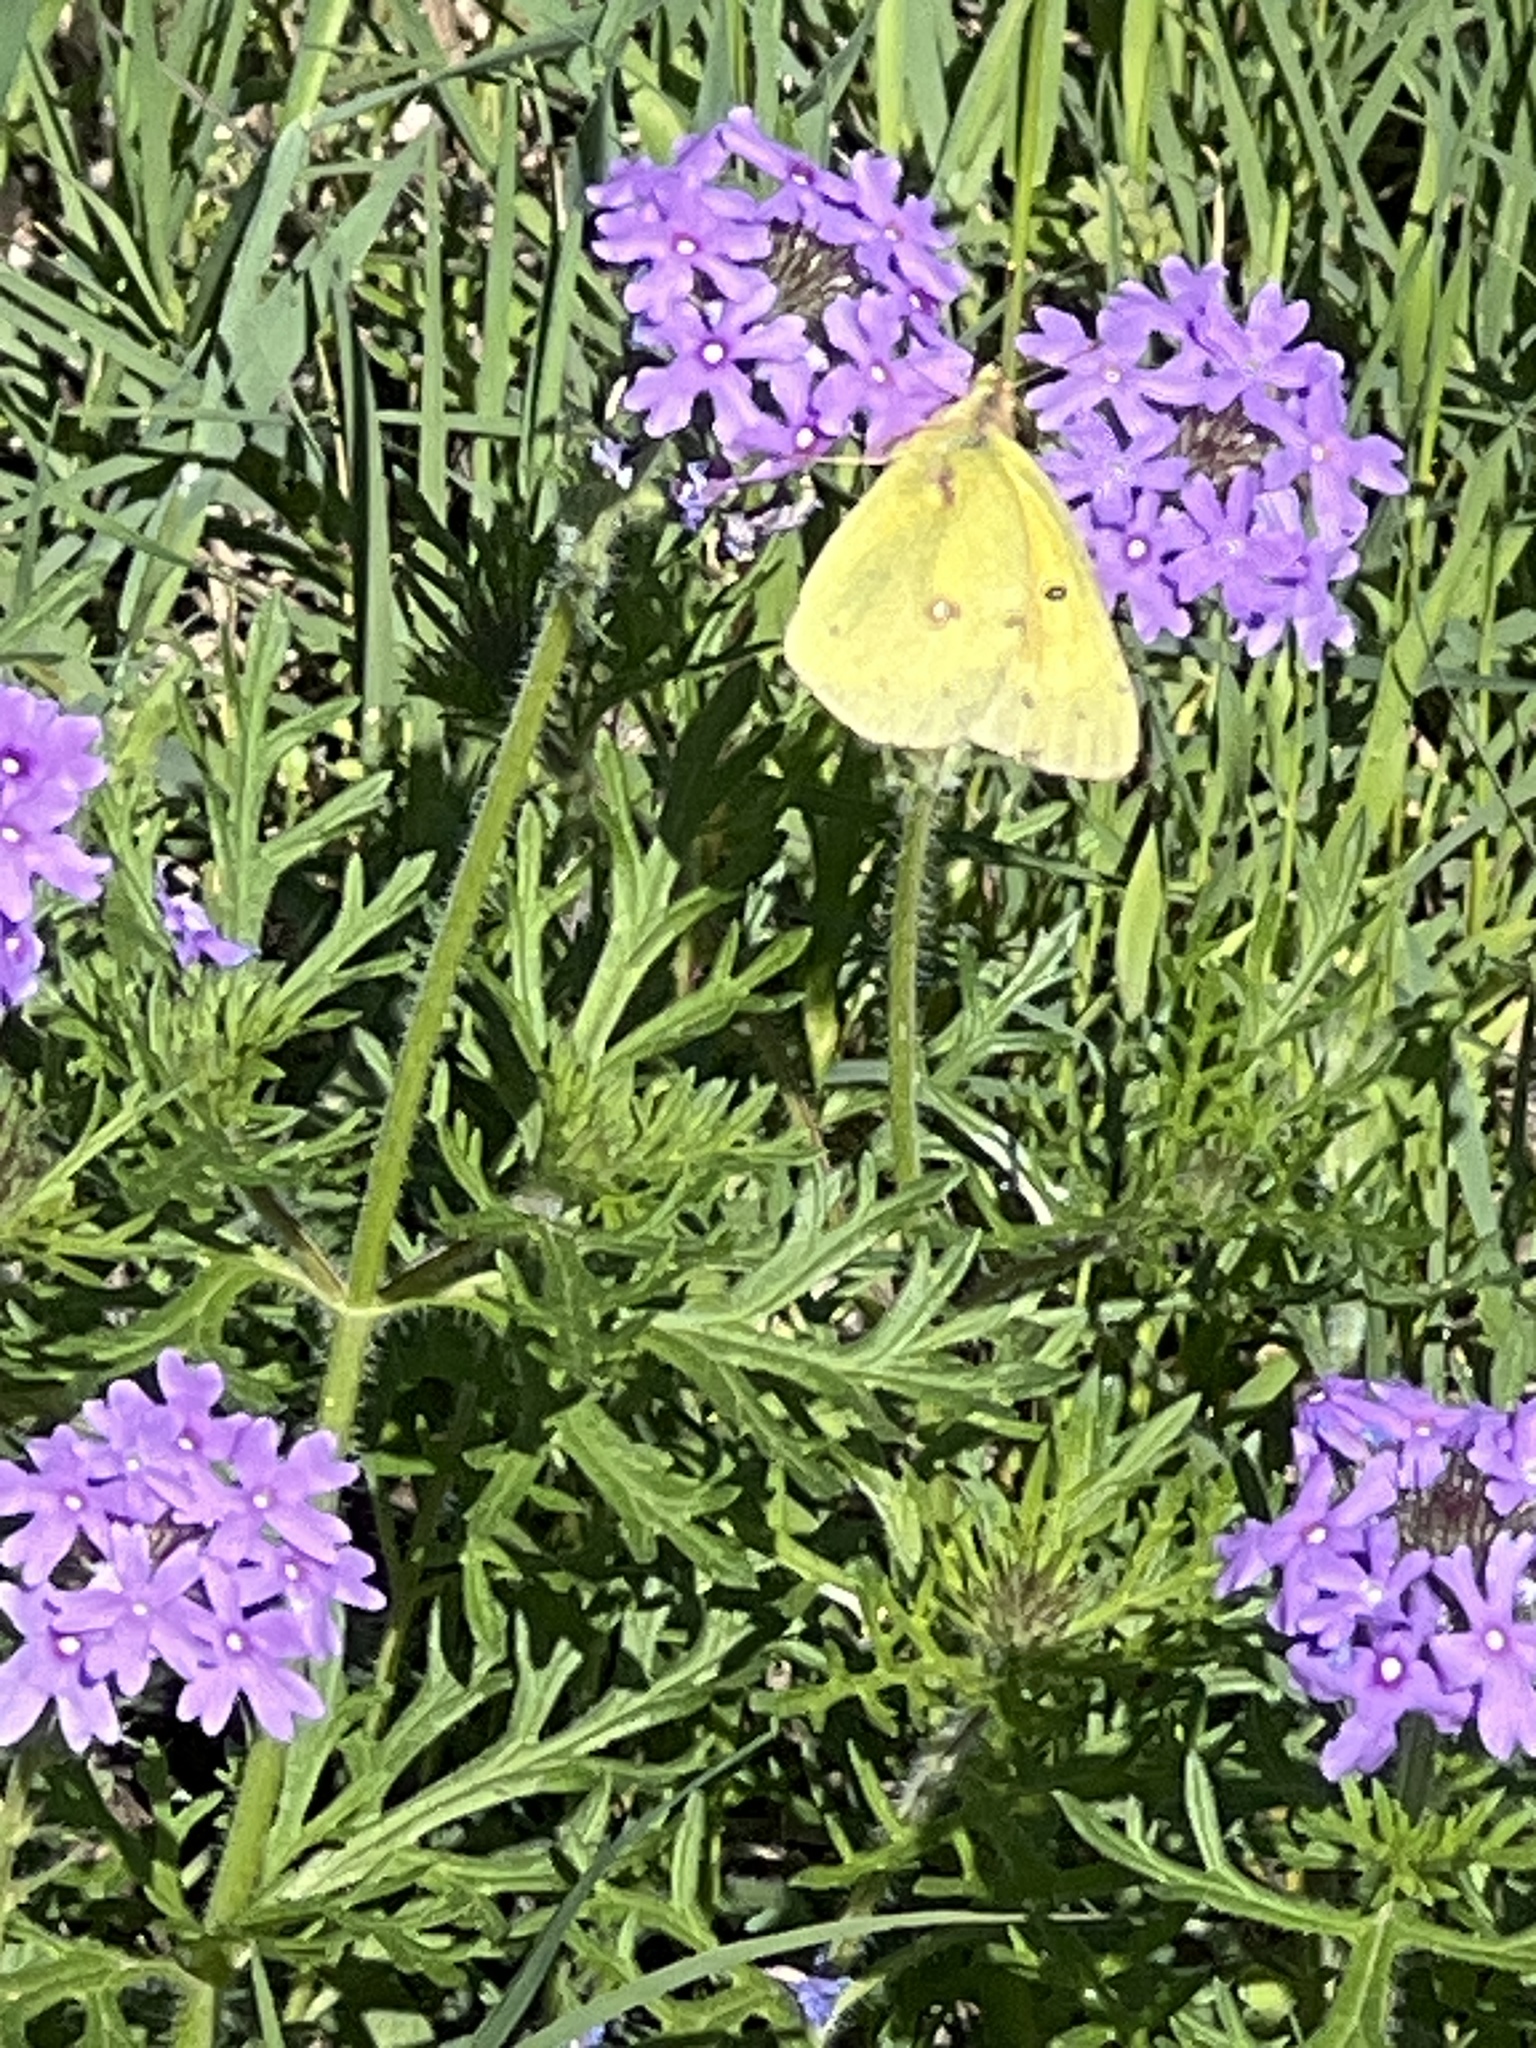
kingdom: Animalia
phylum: Arthropoda
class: Insecta
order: Lepidoptera
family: Pieridae
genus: Colias
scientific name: Colias eurytheme
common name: Alfalfa butterfly
